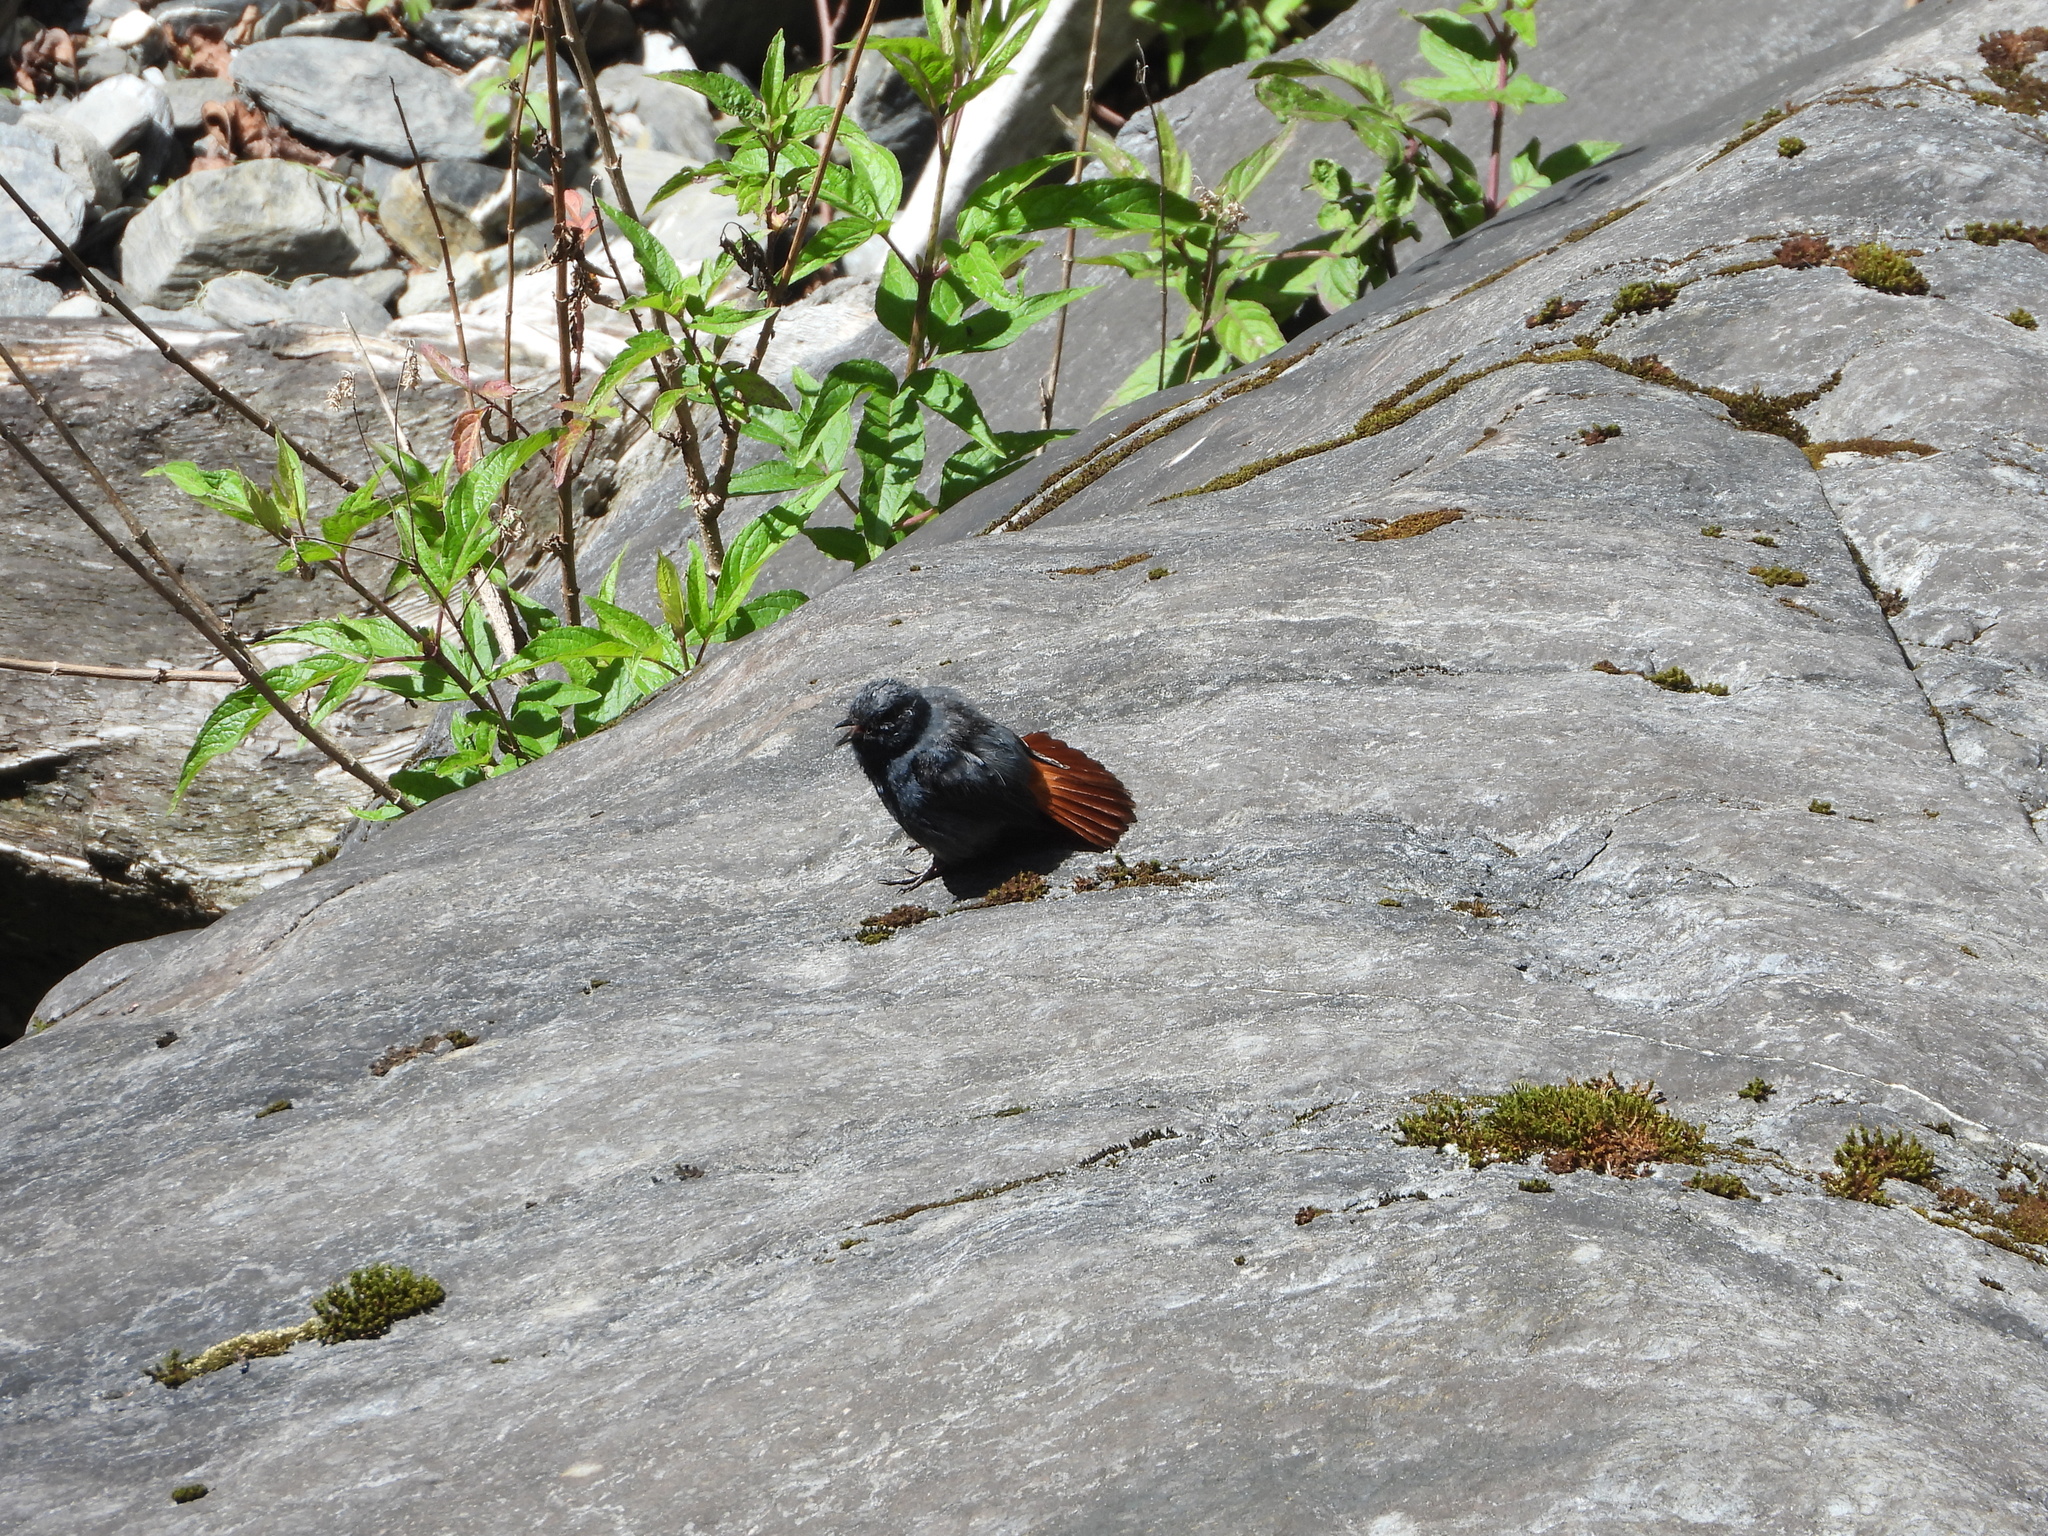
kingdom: Animalia
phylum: Chordata
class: Aves
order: Passeriformes
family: Muscicapidae
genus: Phoenicurus
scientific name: Phoenicurus fuliginosus
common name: Plumbeous water redstart
